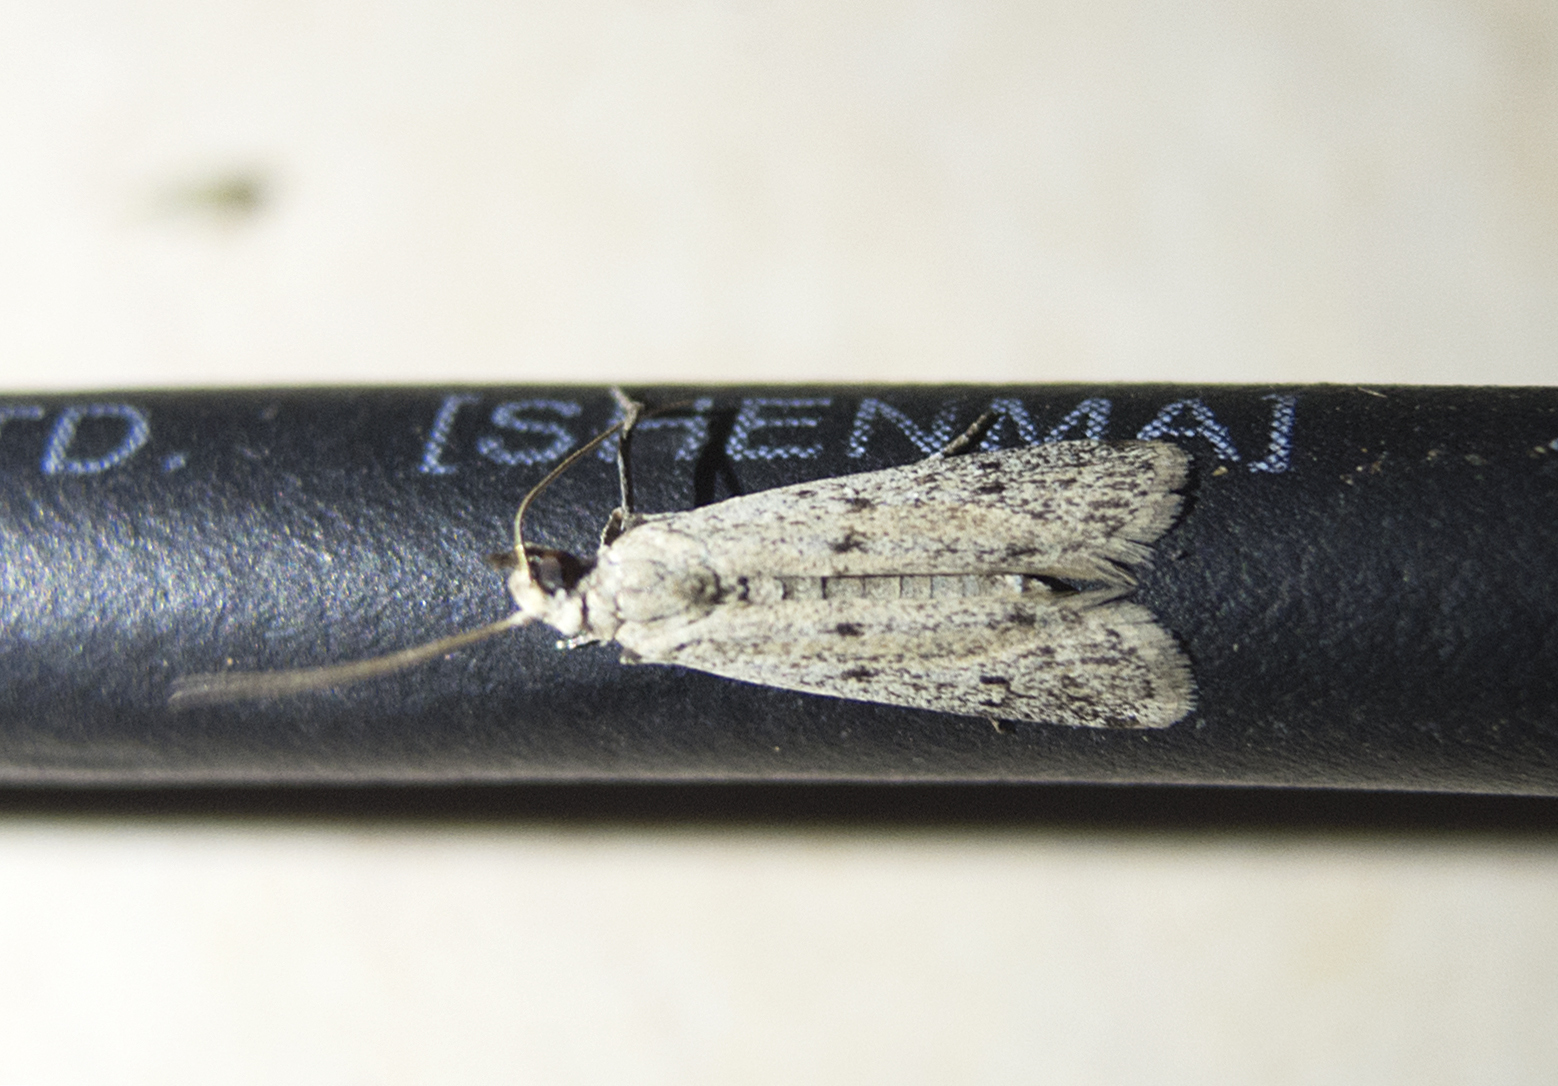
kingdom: Animalia
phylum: Arthropoda
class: Insecta
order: Lepidoptera
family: Pyralidae
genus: Phycitodes
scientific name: Phycitodes lacteella
